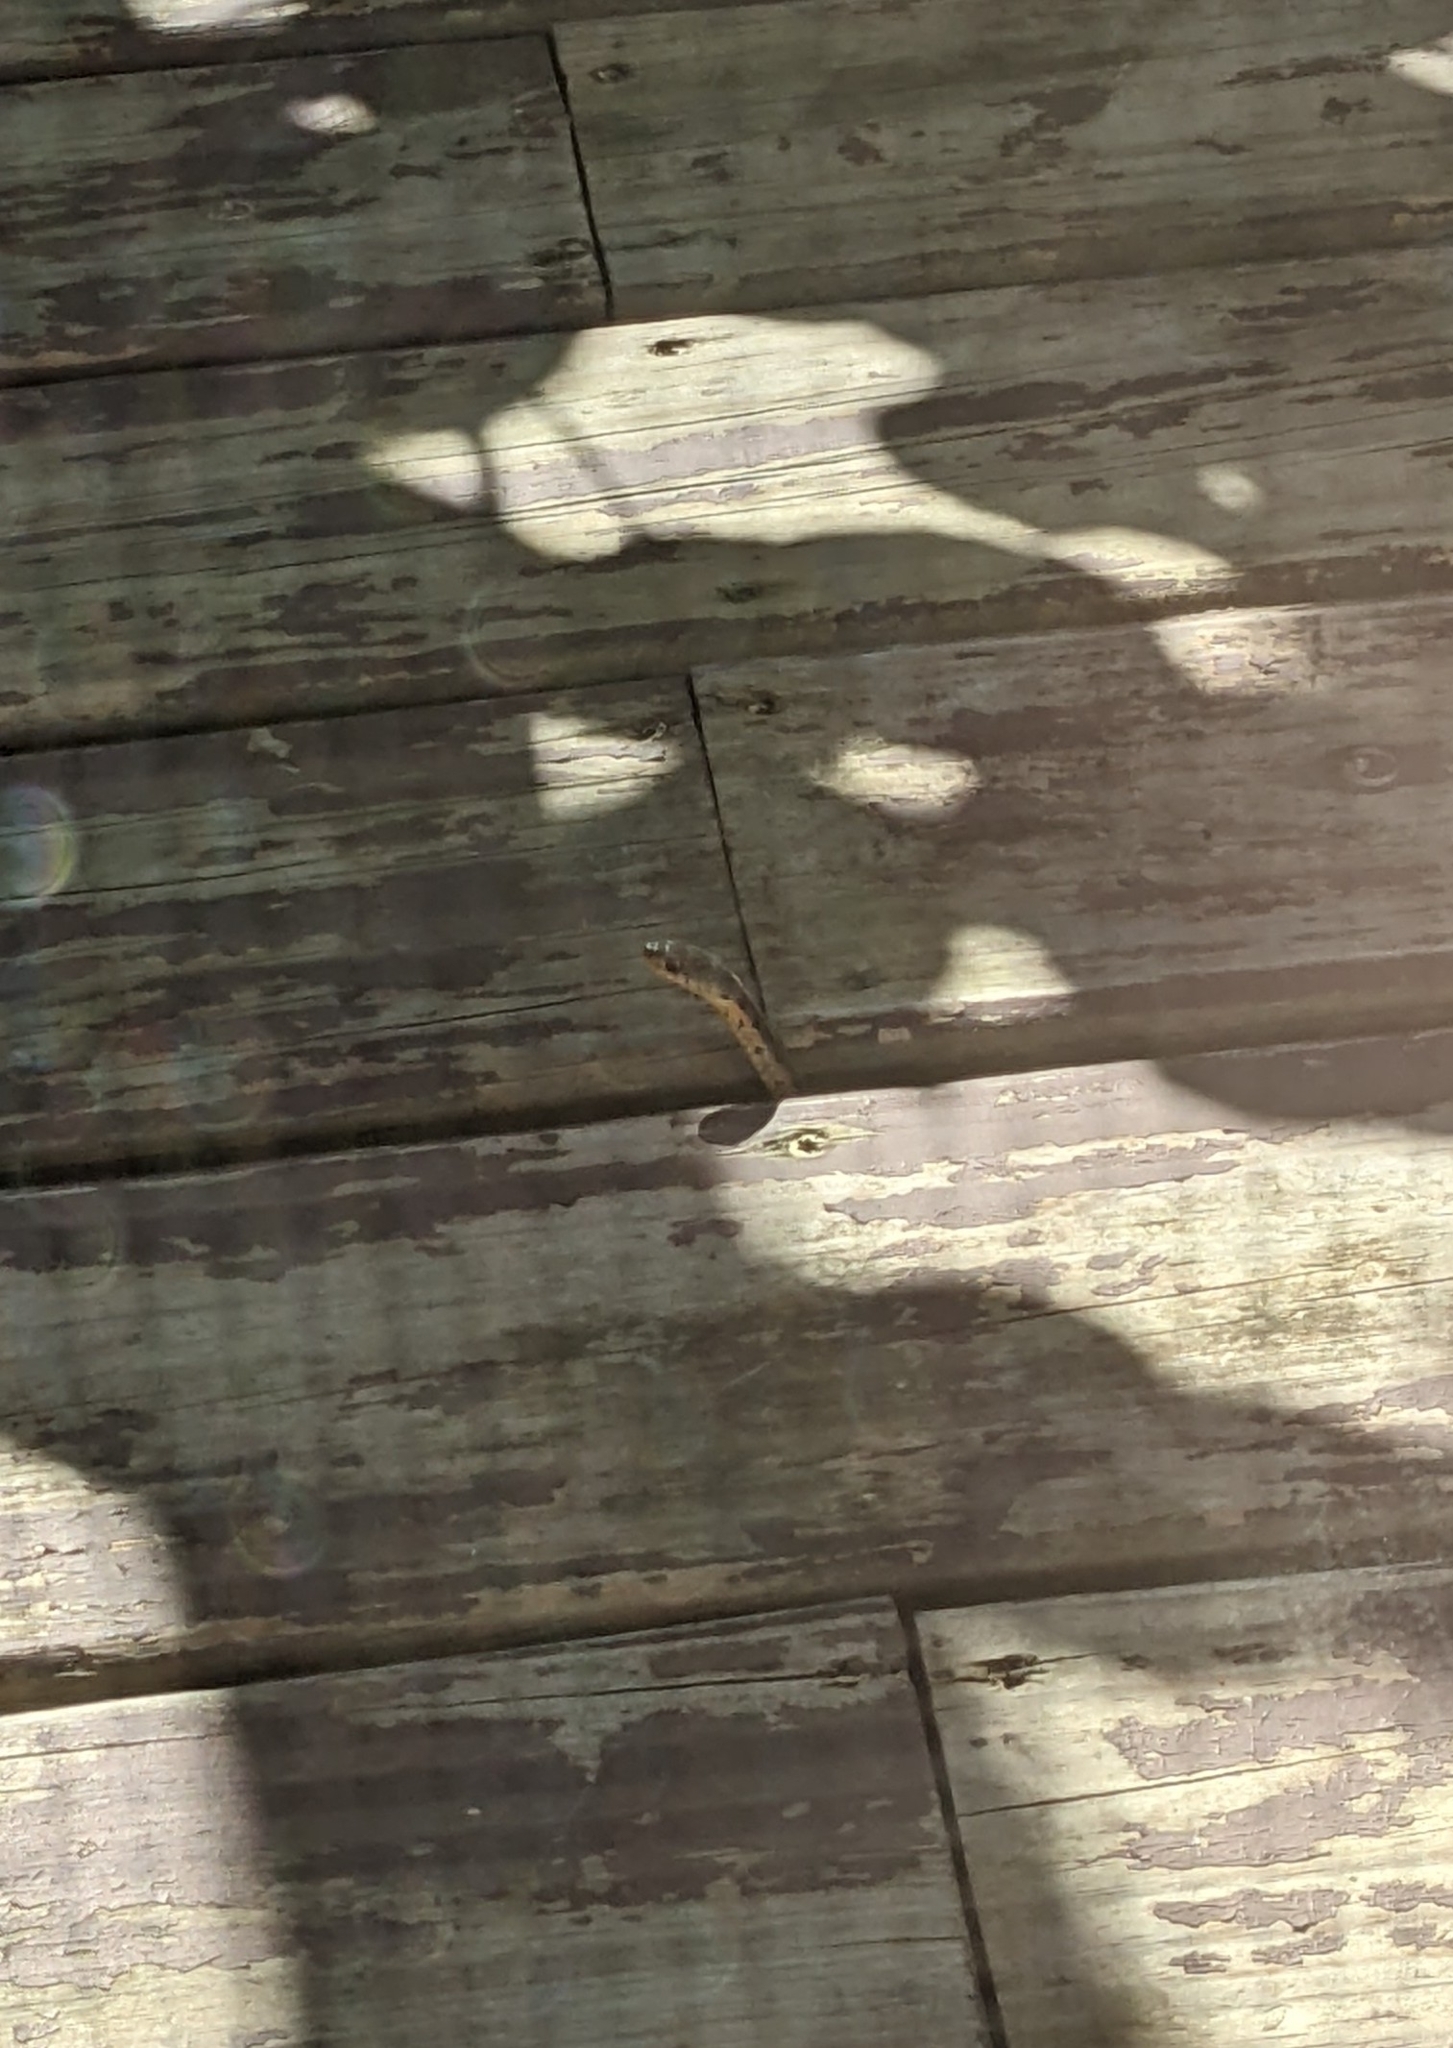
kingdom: Animalia
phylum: Chordata
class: Squamata
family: Colubridae
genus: Thamnophis
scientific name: Thamnophis sirtalis
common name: Common garter snake
